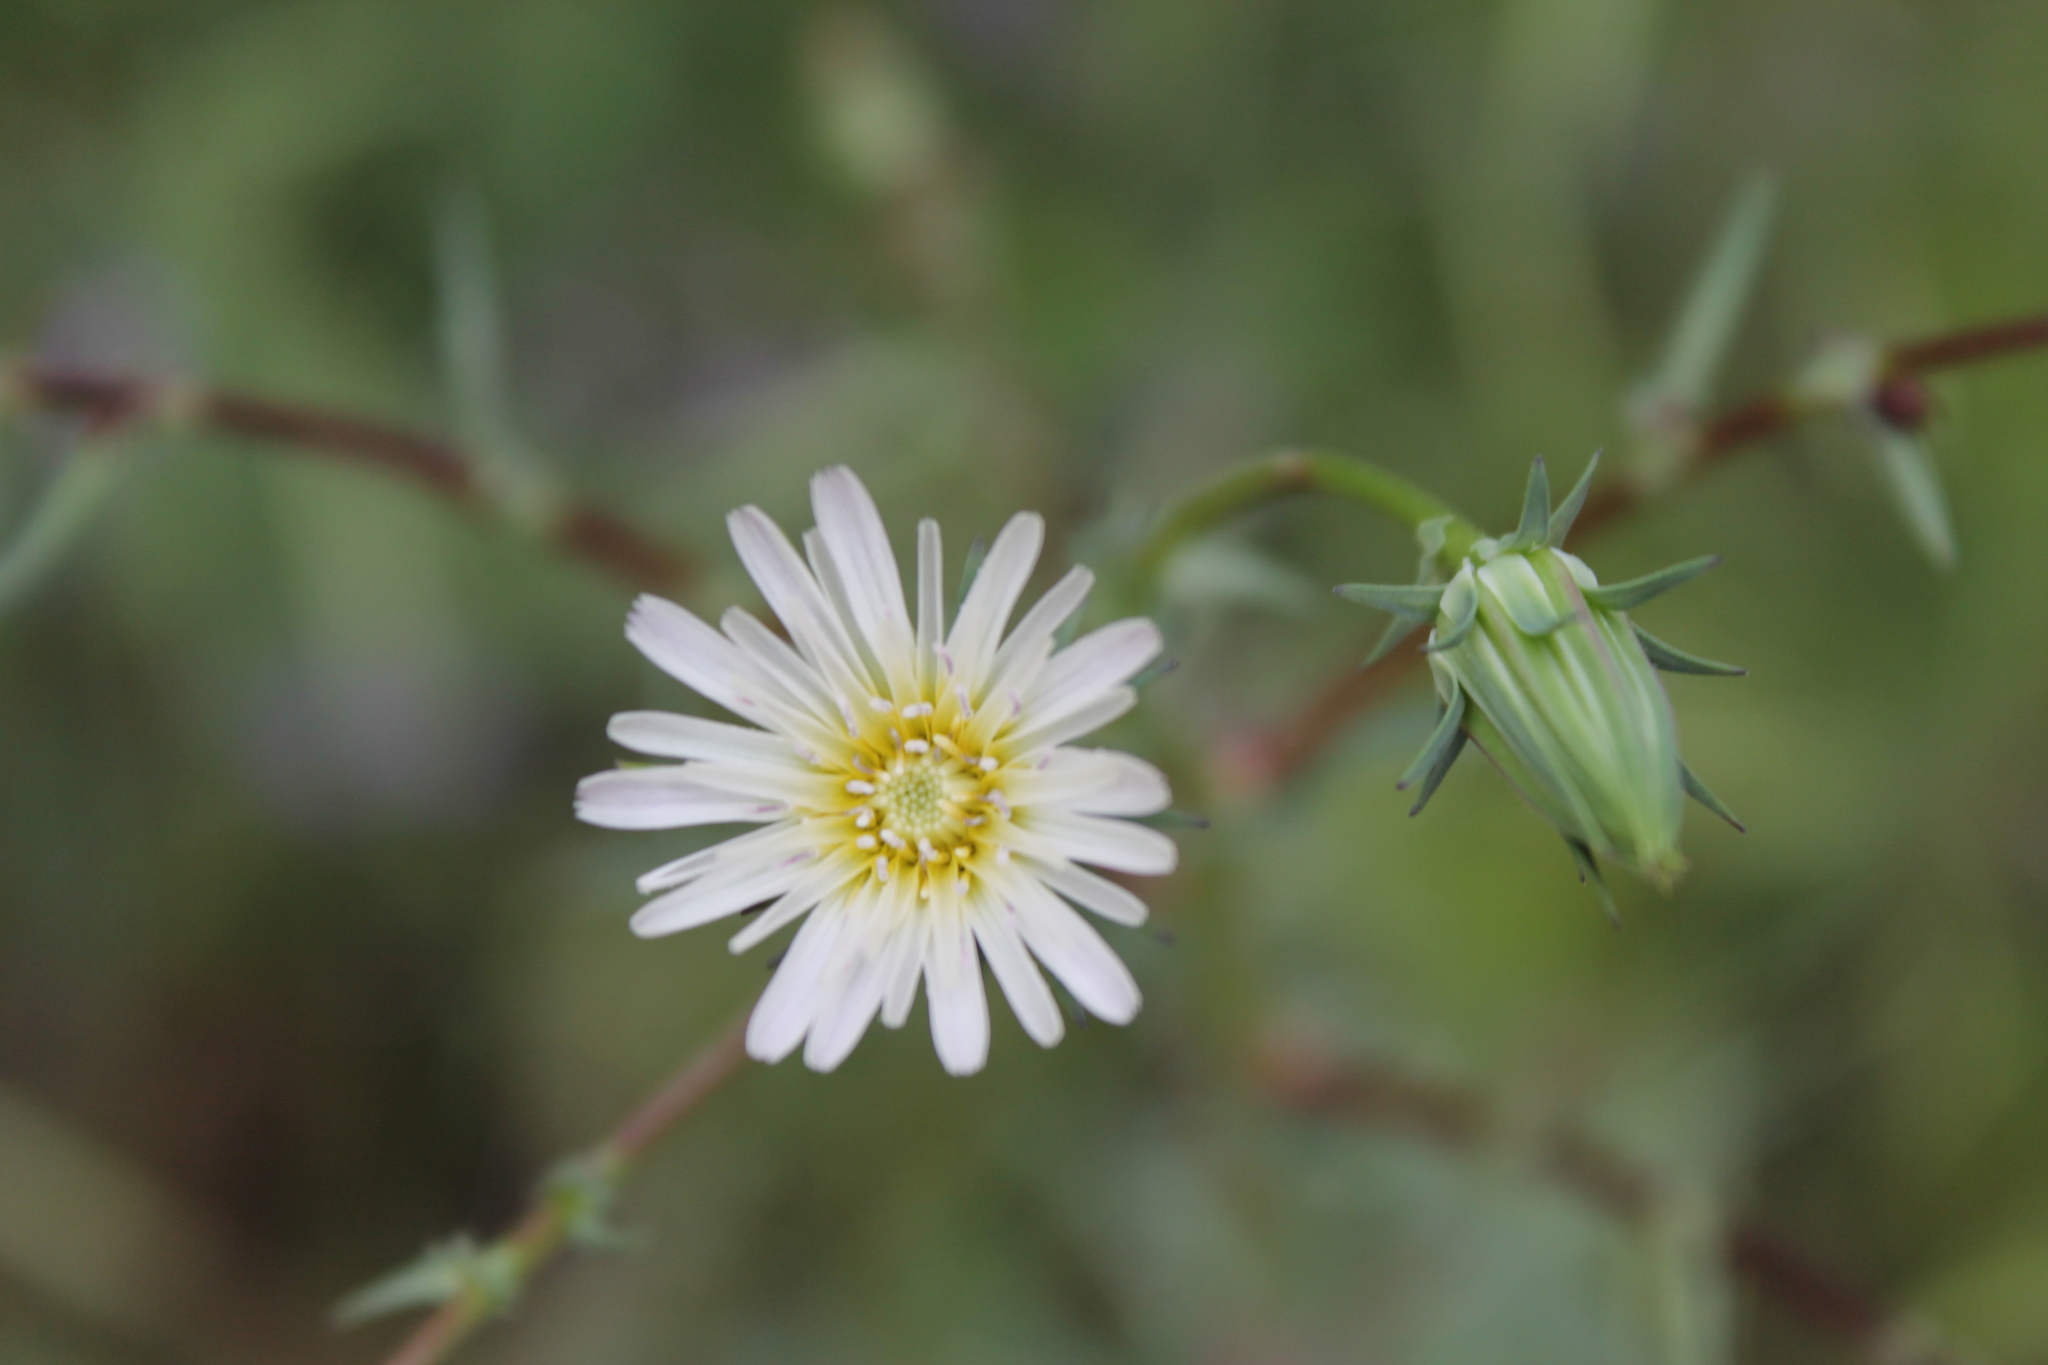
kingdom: Plantae
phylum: Tracheophyta
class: Magnoliopsida
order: Asterales
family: Asteraceae
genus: Rafinesquia
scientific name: Rafinesquia californica
